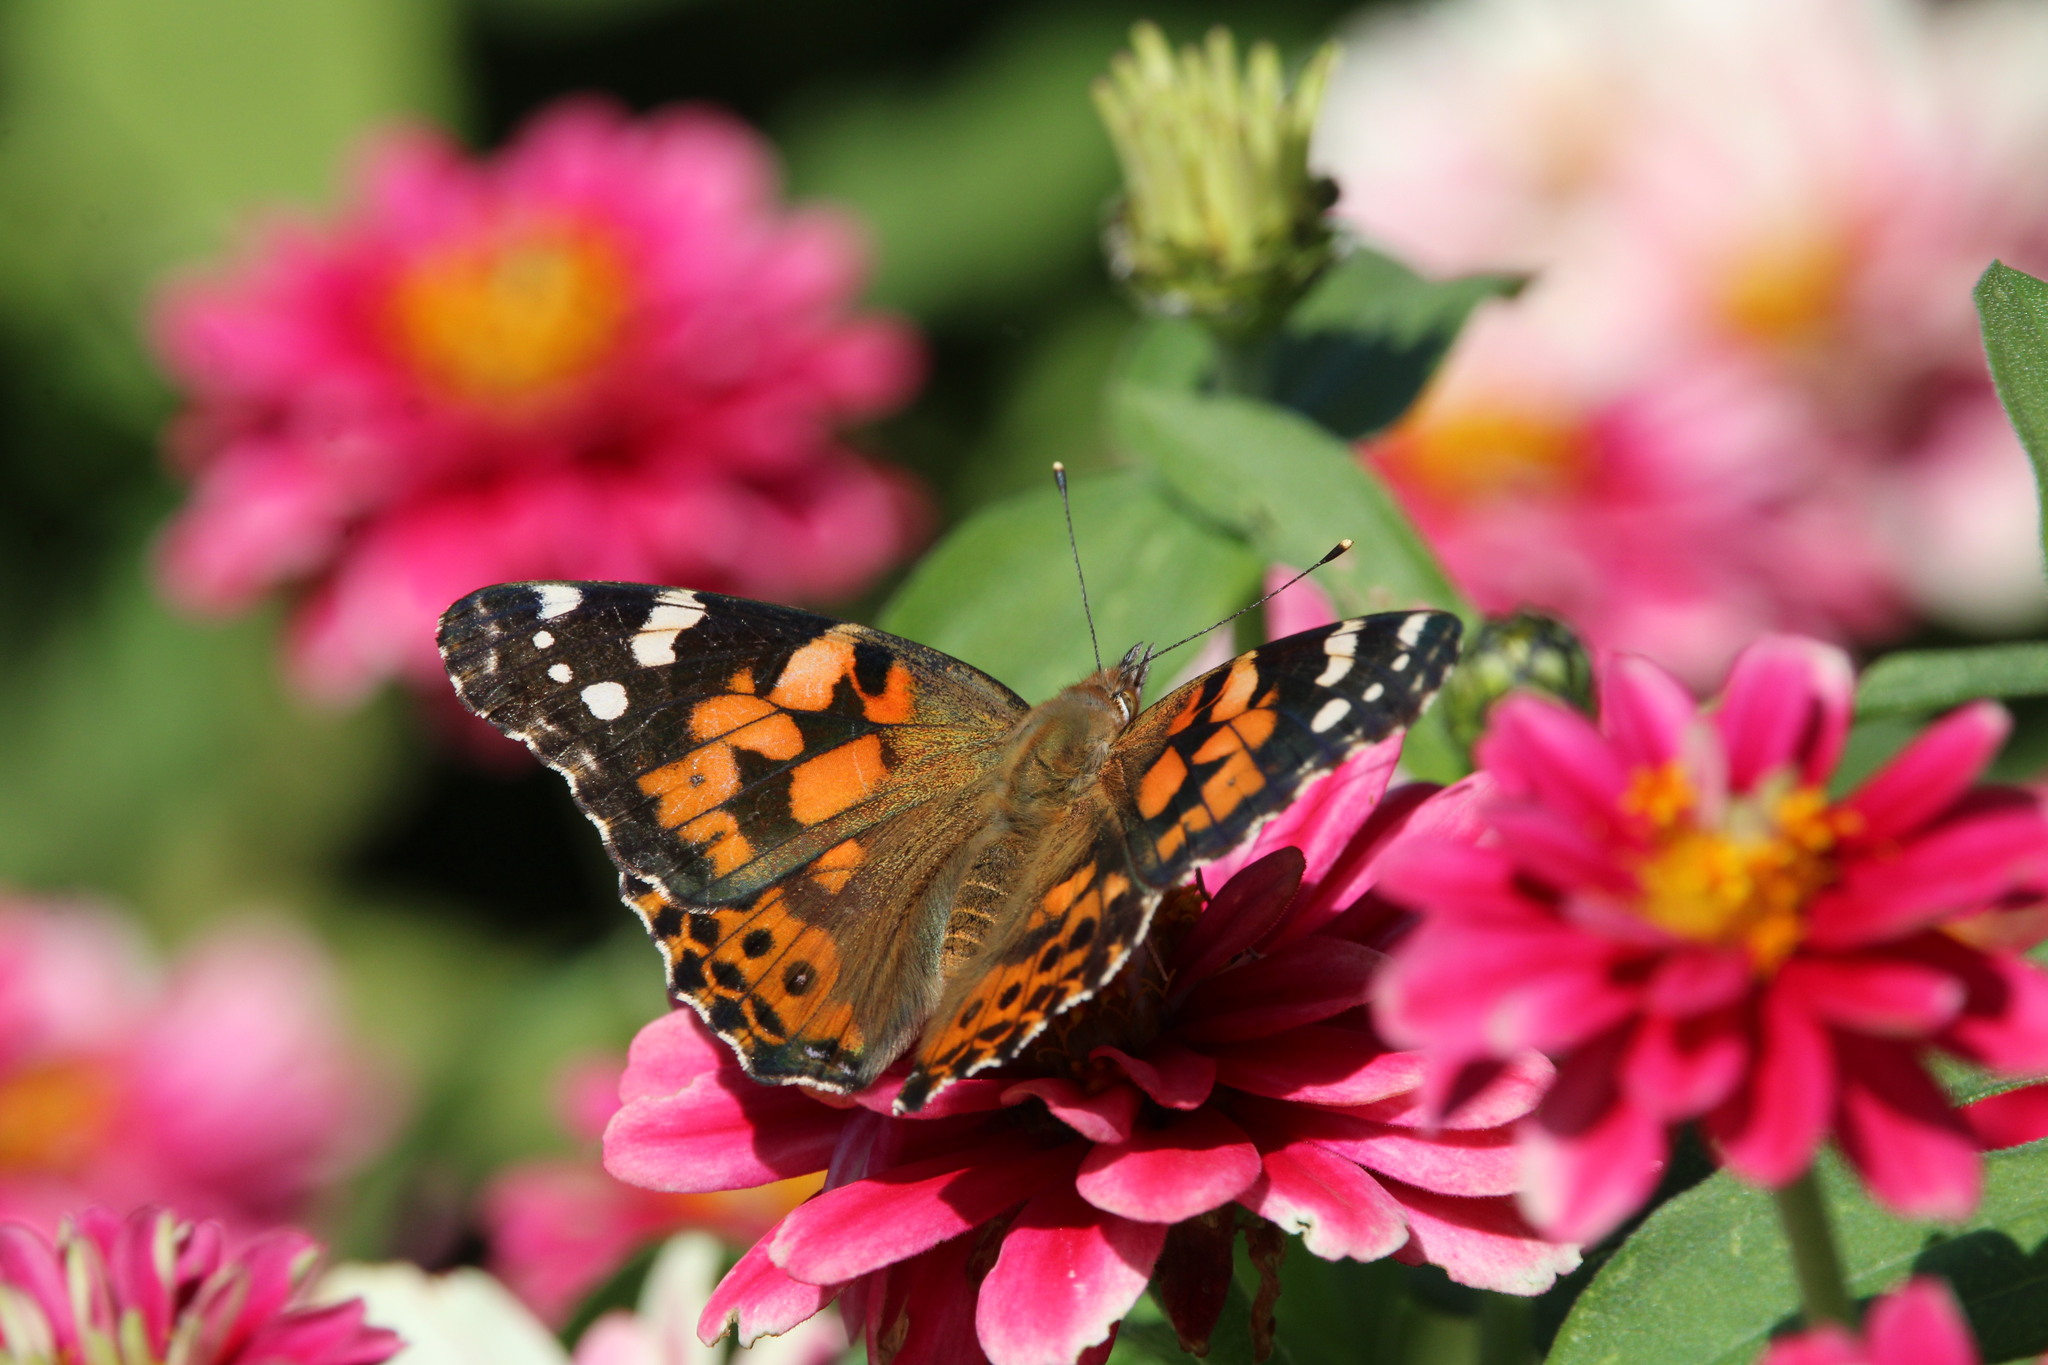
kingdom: Animalia
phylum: Arthropoda
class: Insecta
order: Lepidoptera
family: Nymphalidae
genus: Vanessa
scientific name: Vanessa cardui
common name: Painted lady
